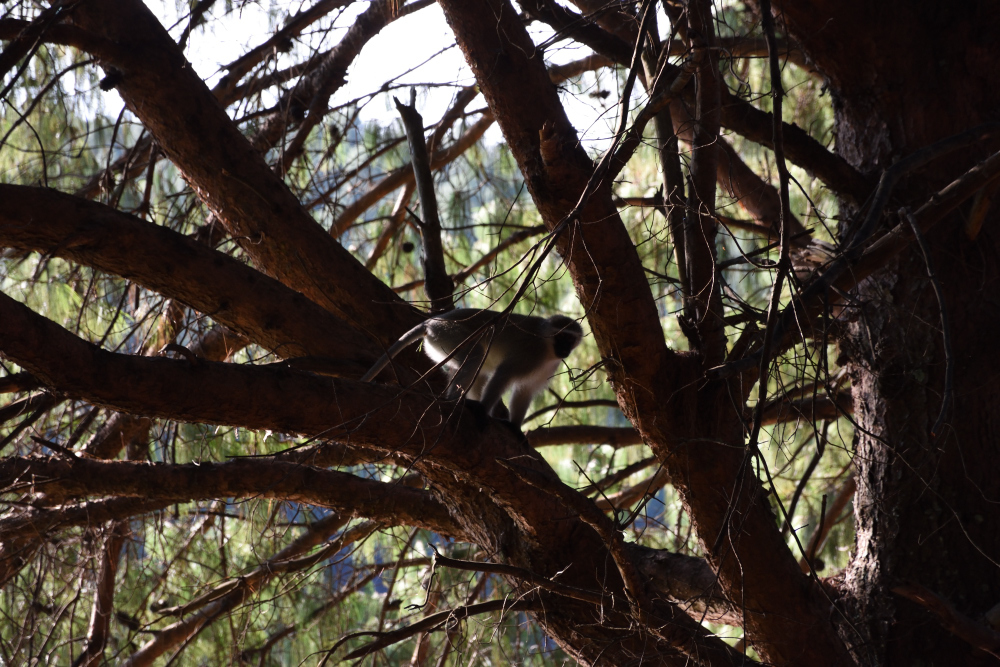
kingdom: Animalia
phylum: Chordata
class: Mammalia
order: Primates
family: Cercopithecidae
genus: Chlorocebus
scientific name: Chlorocebus pygerythrus
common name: Vervet monkey
